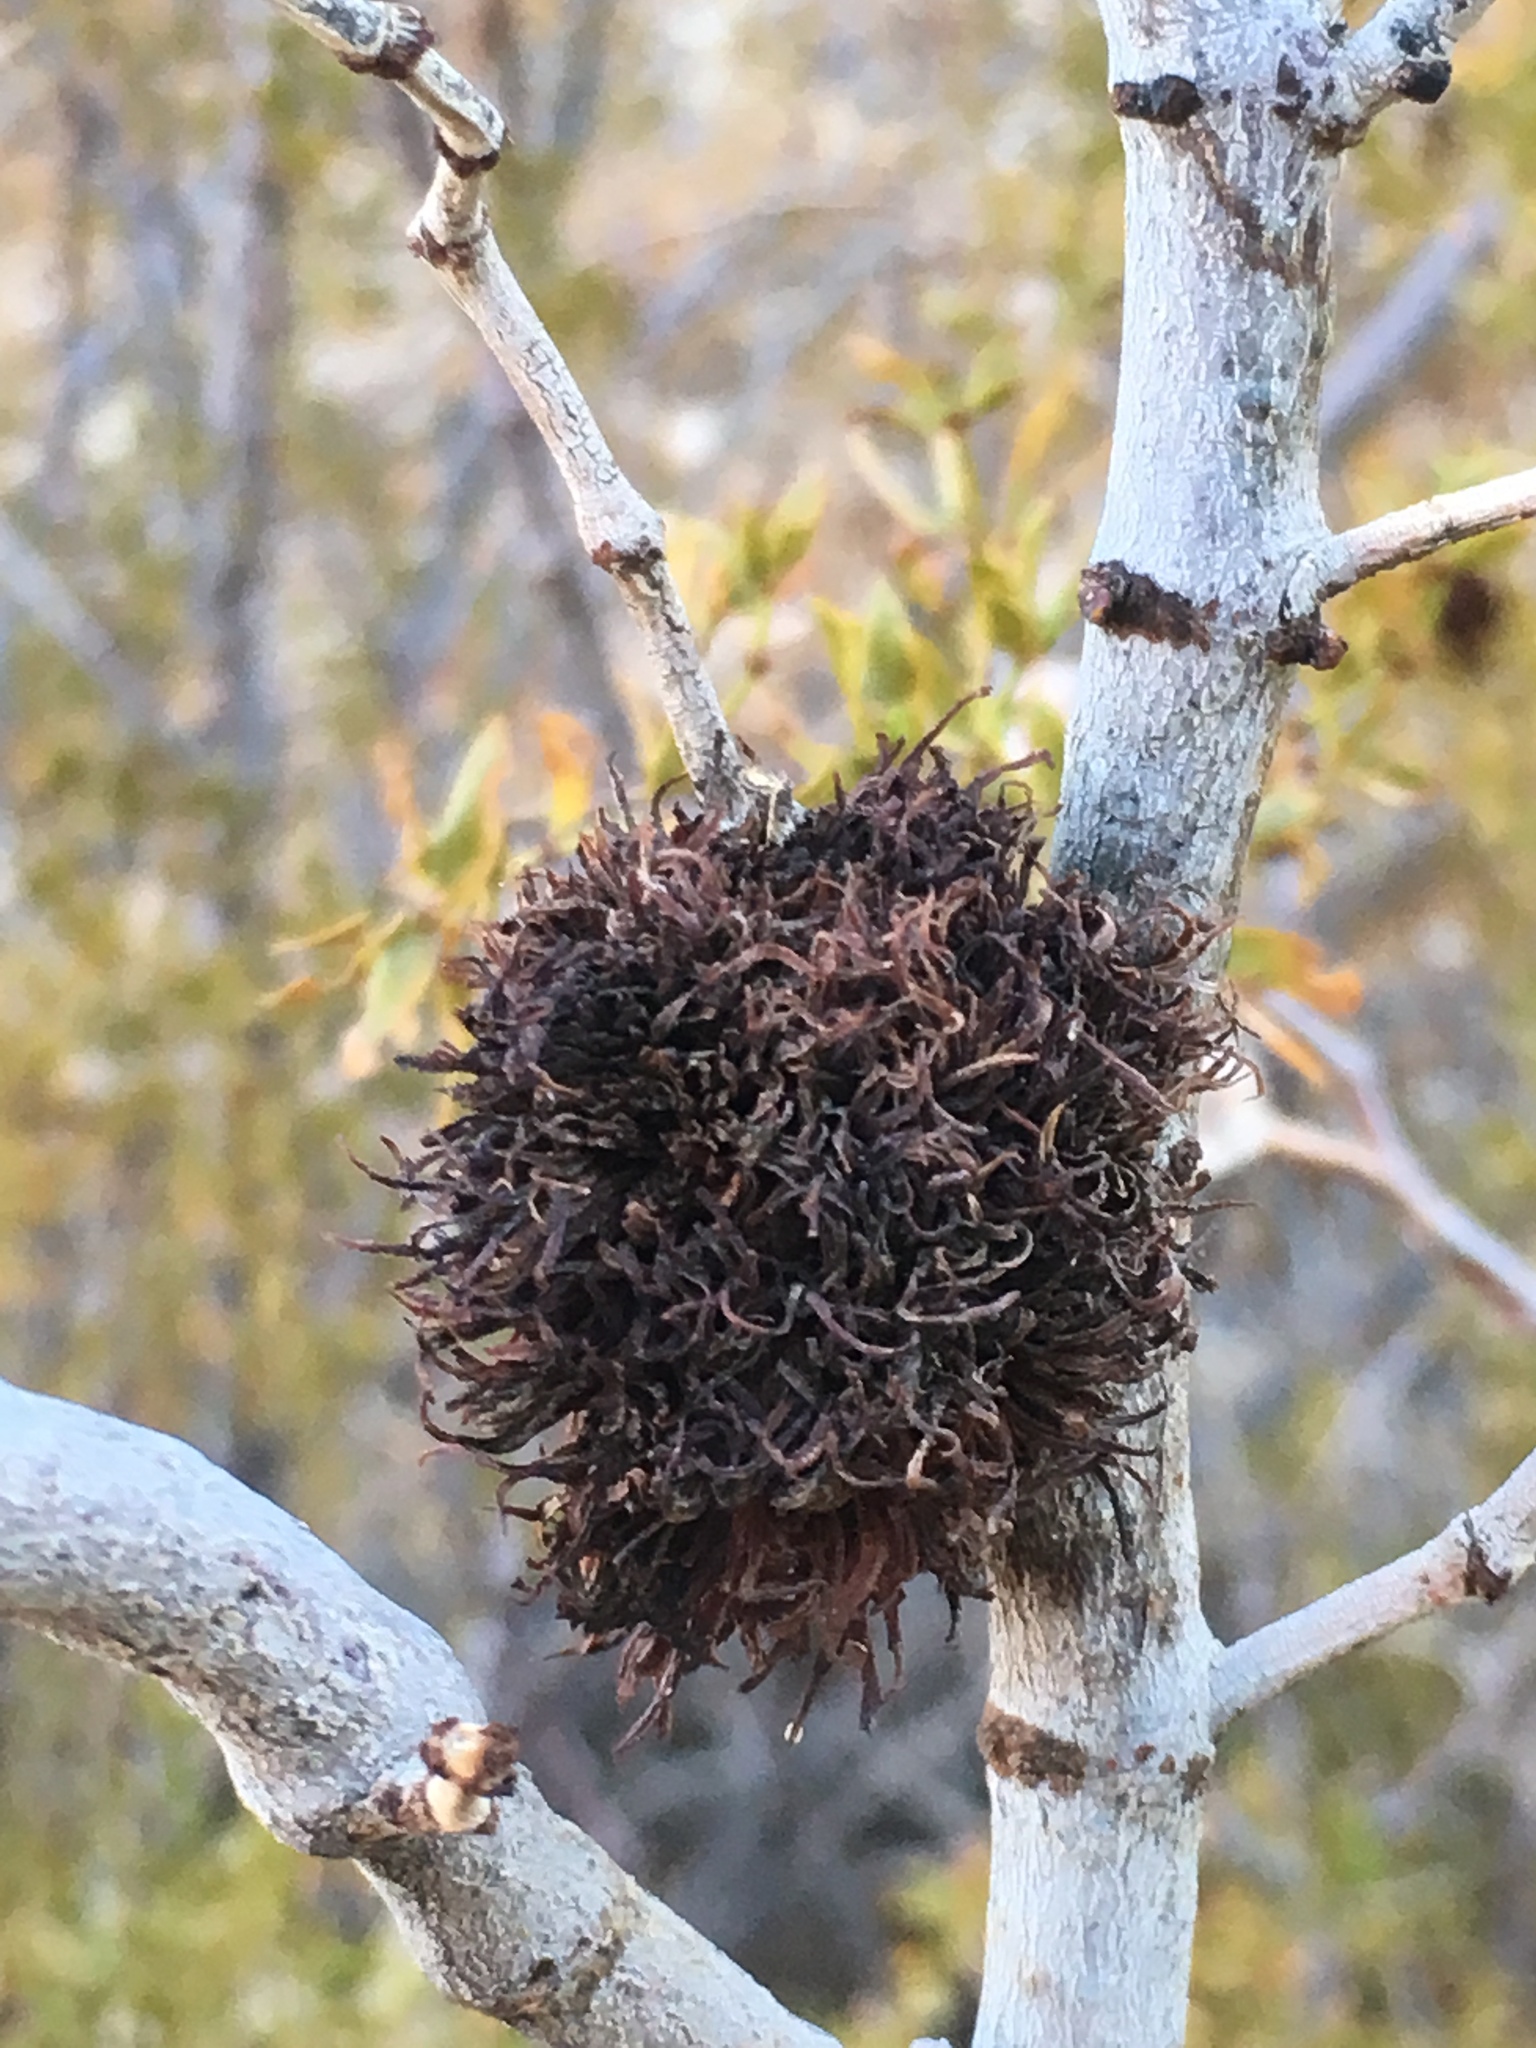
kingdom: Animalia
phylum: Arthropoda
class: Insecta
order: Diptera
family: Cecidomyiidae
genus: Asphondylia
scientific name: Asphondylia auripila
